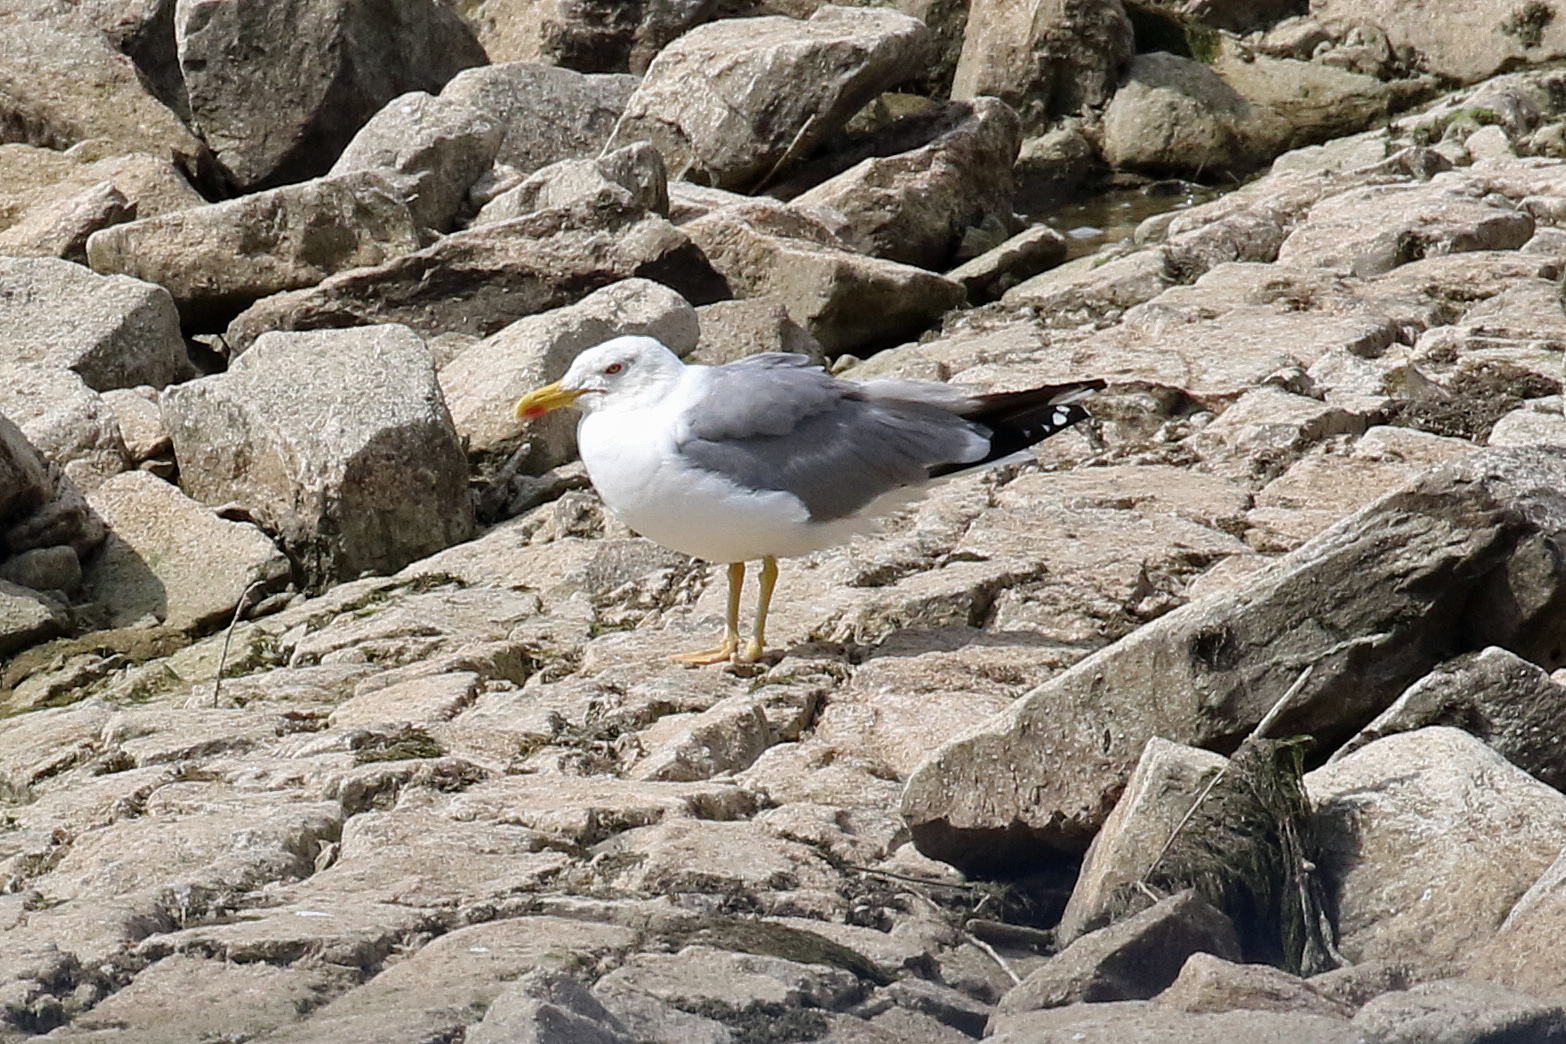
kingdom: Animalia
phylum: Chordata
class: Aves
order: Charadriiformes
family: Laridae
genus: Larus
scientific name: Larus michahellis
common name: Yellow-legged gull
